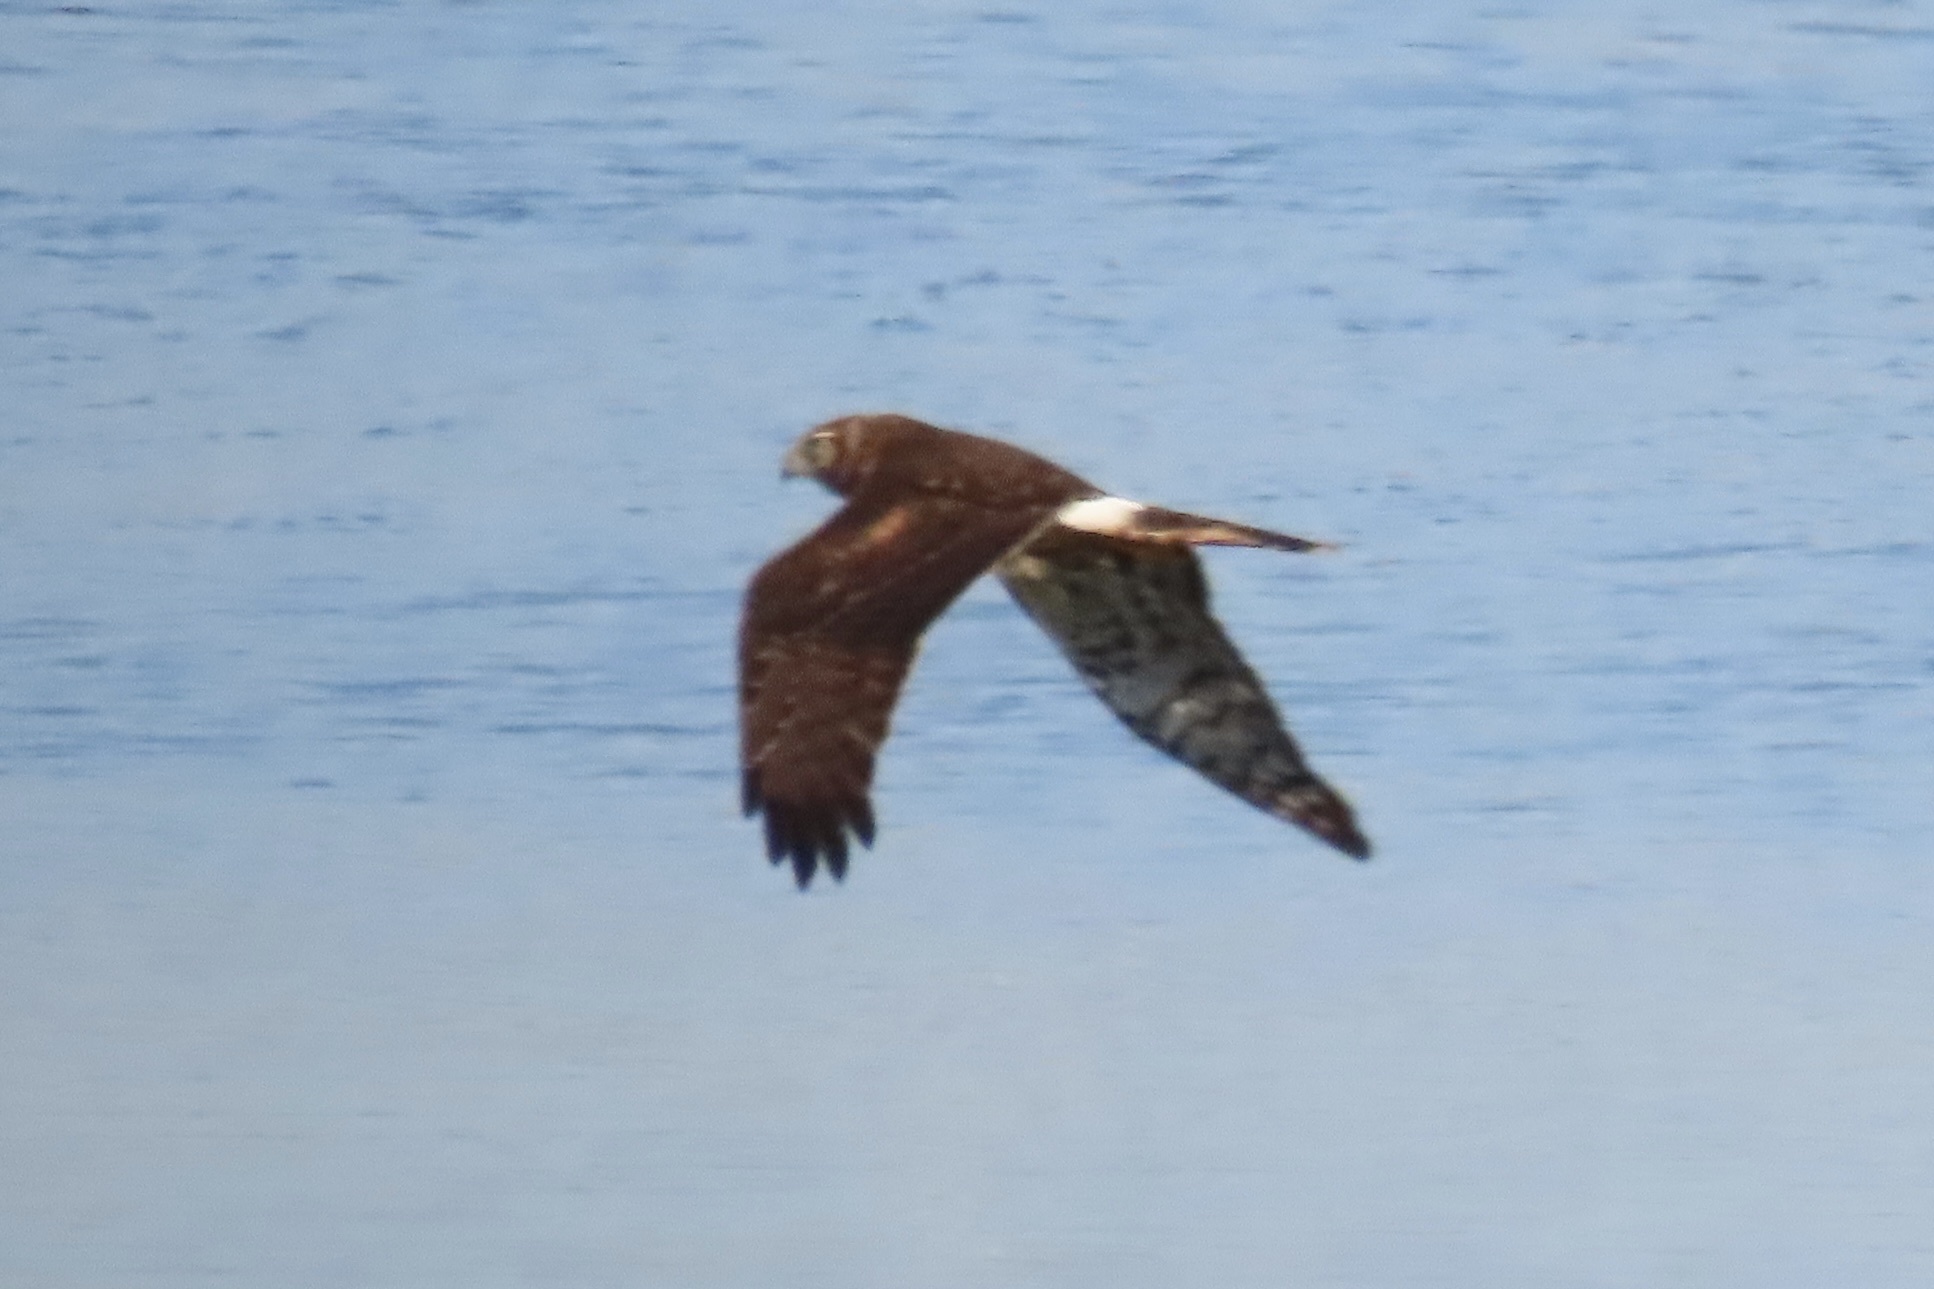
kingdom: Animalia
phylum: Chordata
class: Aves
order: Accipitriformes
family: Accipitridae
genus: Circus
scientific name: Circus cyaneus
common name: Hen harrier
